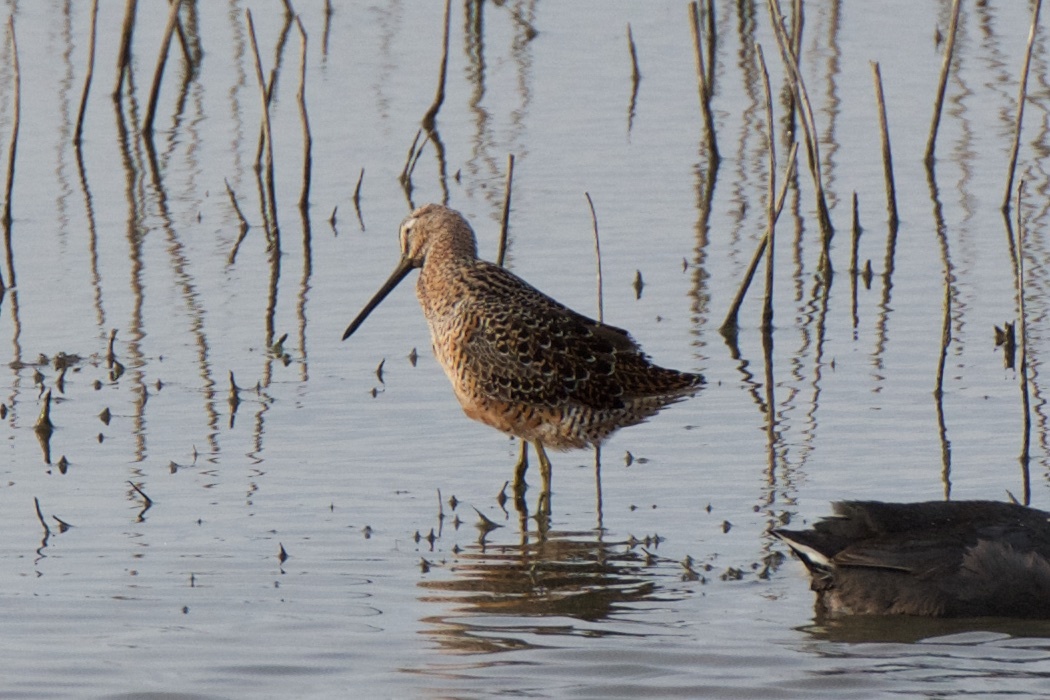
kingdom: Animalia
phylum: Chordata
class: Aves
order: Charadriiformes
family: Scolopacidae
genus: Limnodromus
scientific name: Limnodromus scolopaceus
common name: Long-billed dowitcher
